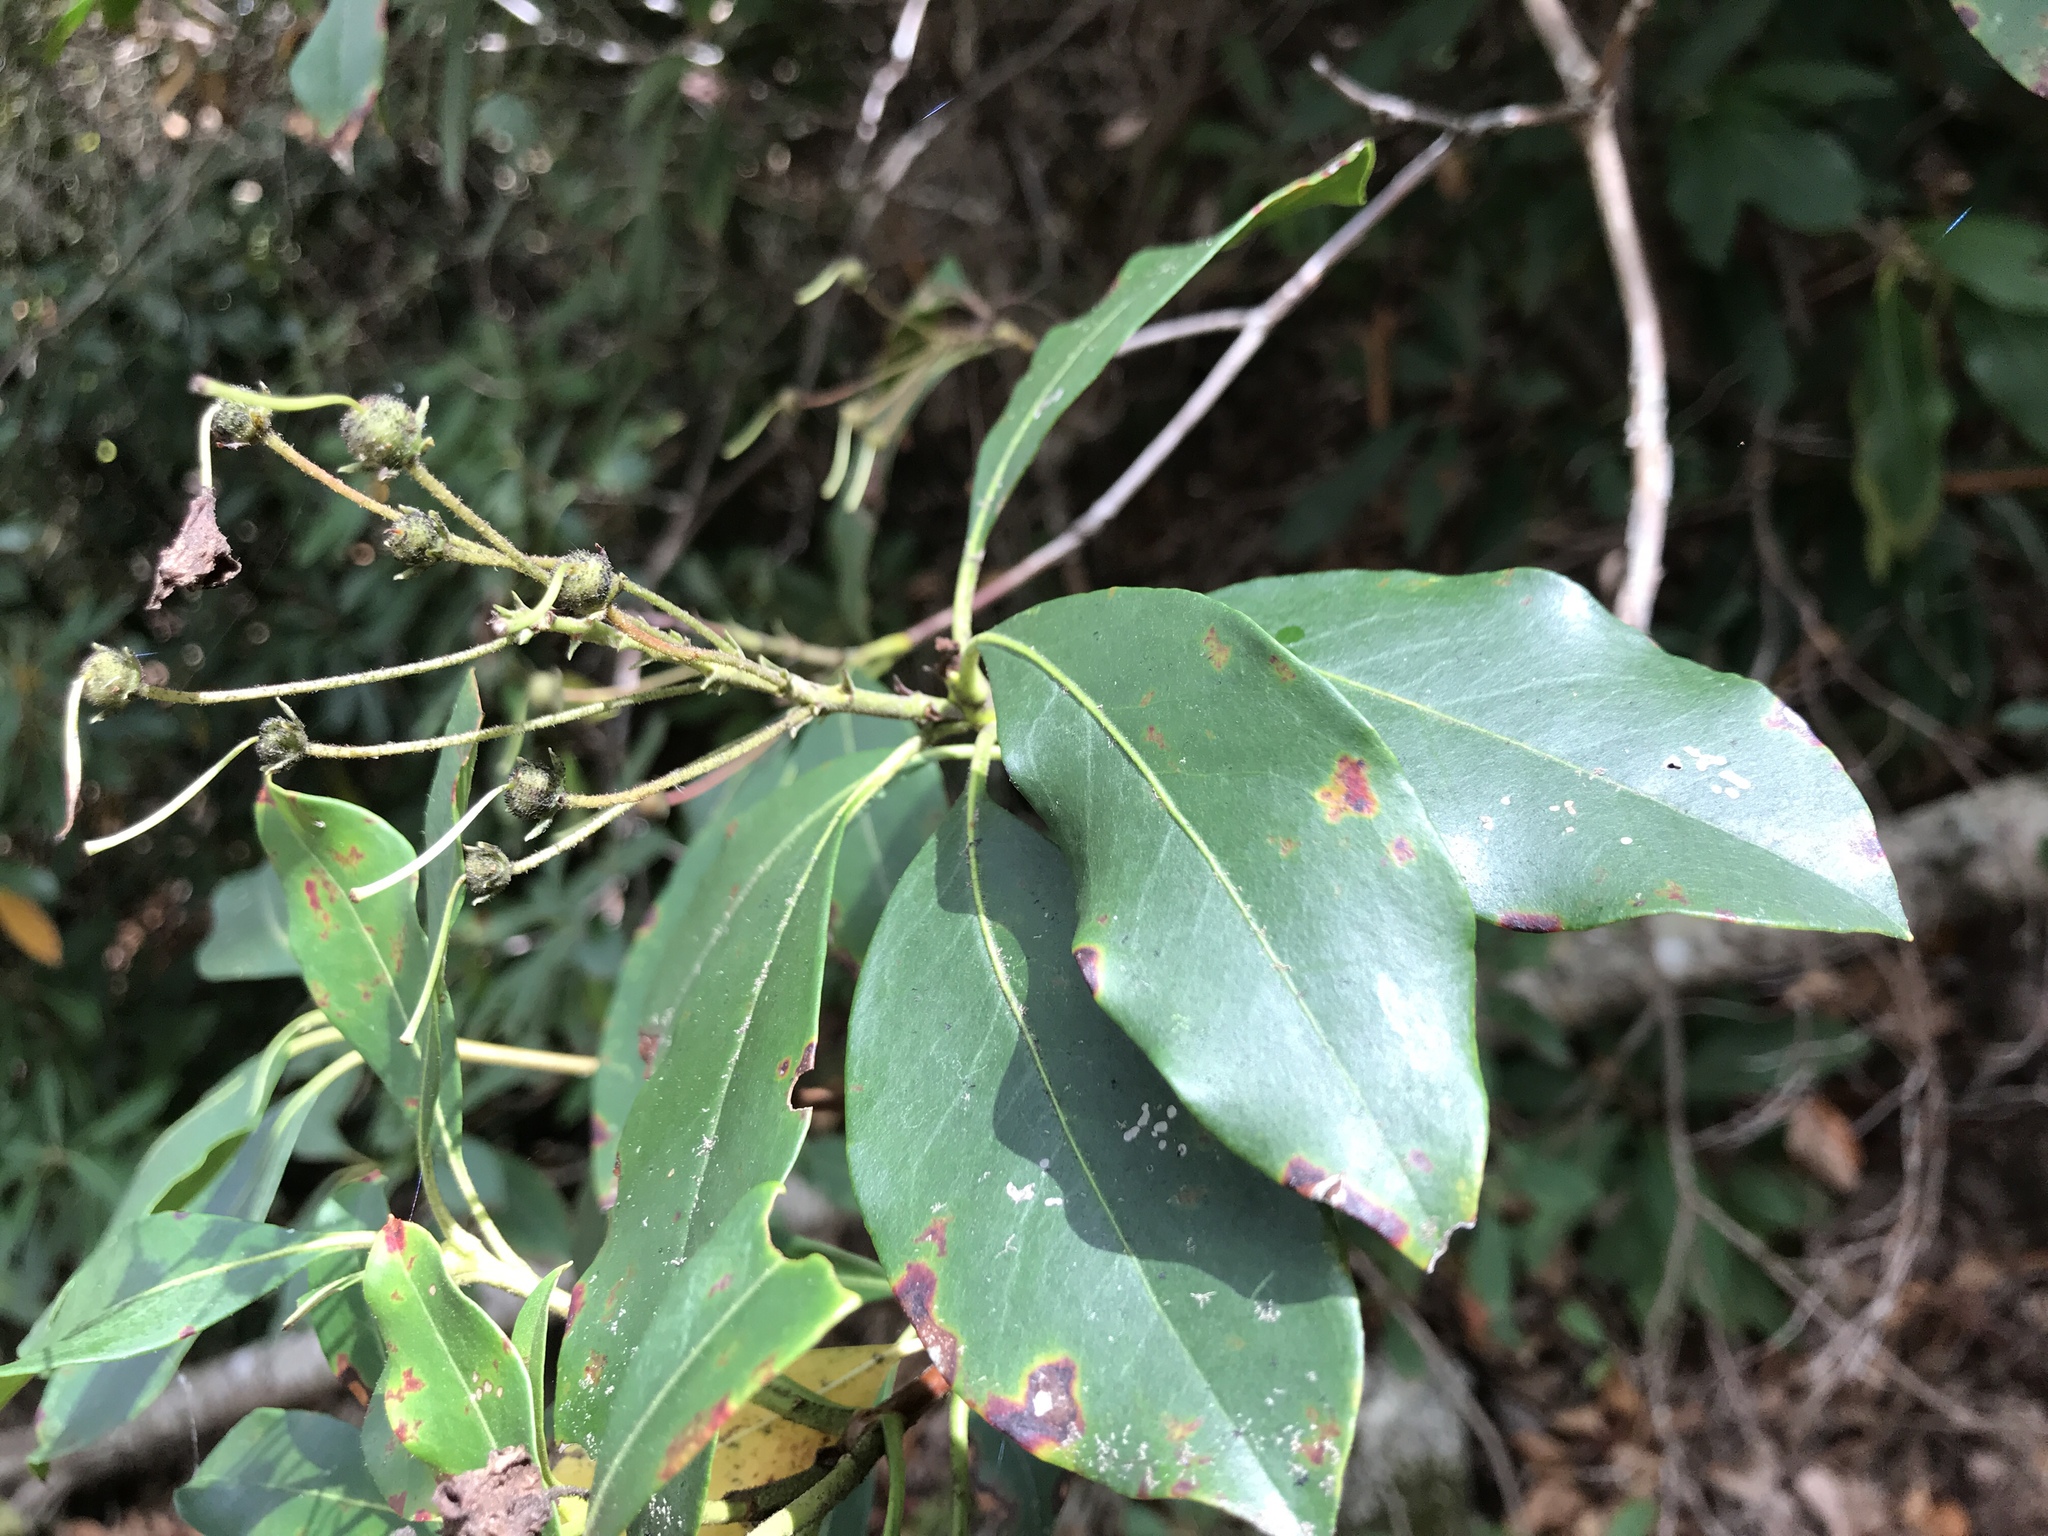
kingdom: Plantae
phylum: Tracheophyta
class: Magnoliopsida
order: Ericales
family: Ericaceae
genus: Kalmia
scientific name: Kalmia latifolia
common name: Mountain-laurel
